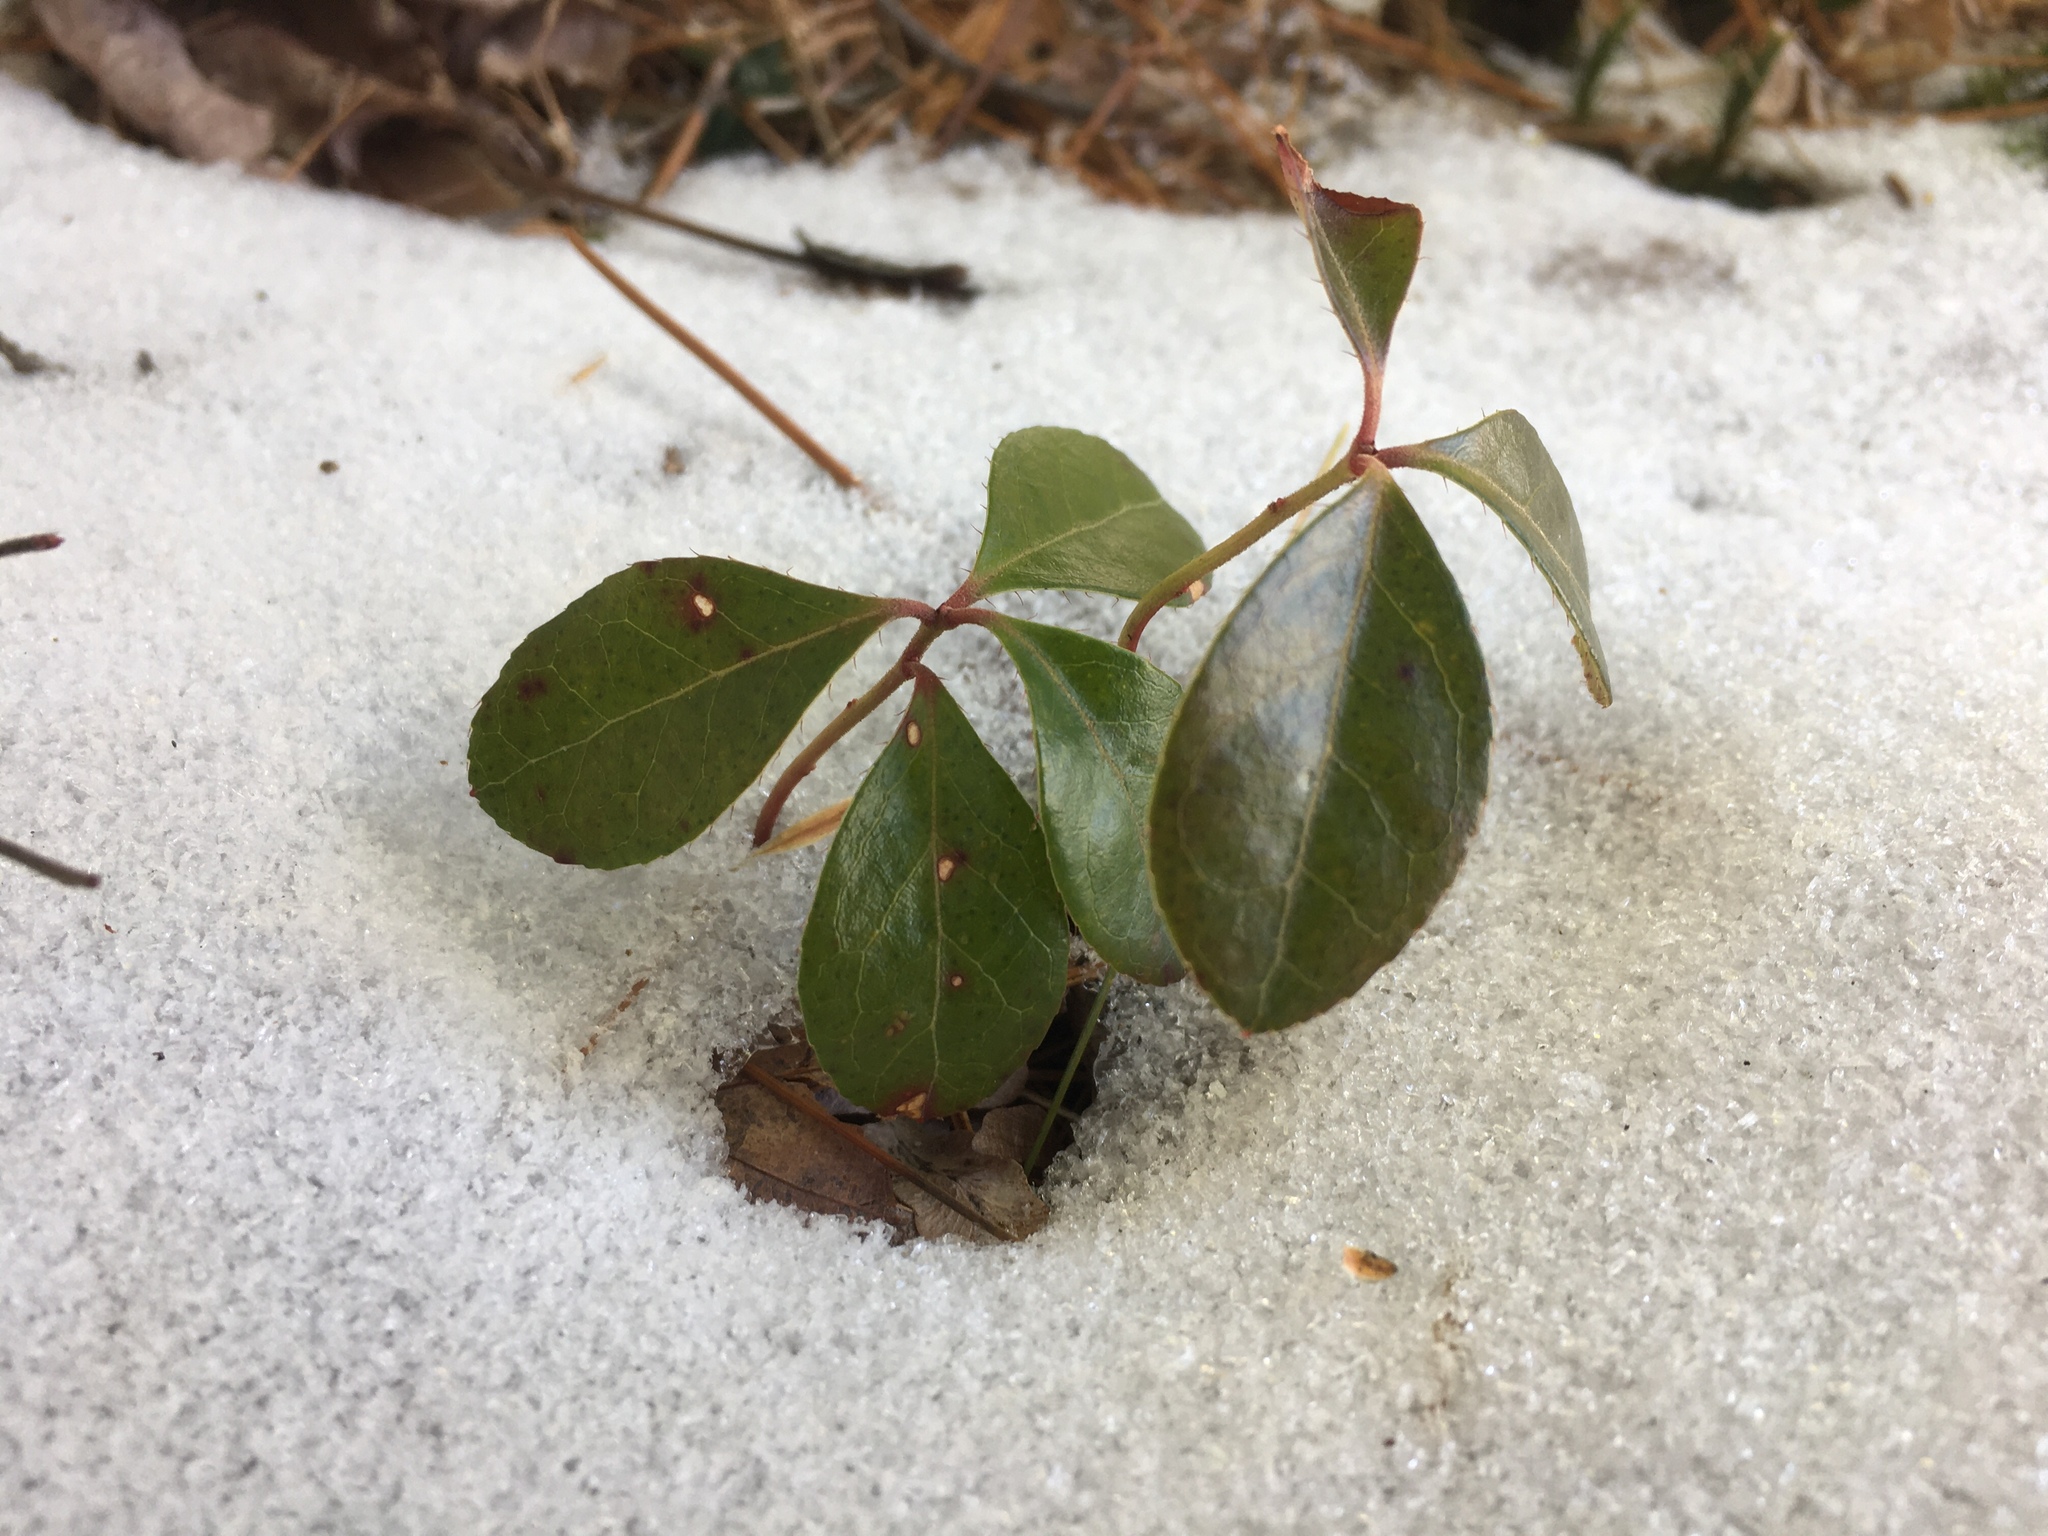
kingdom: Plantae
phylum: Tracheophyta
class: Magnoliopsida
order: Ericales
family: Ericaceae
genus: Gaultheria
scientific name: Gaultheria procumbens
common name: Checkerberry
